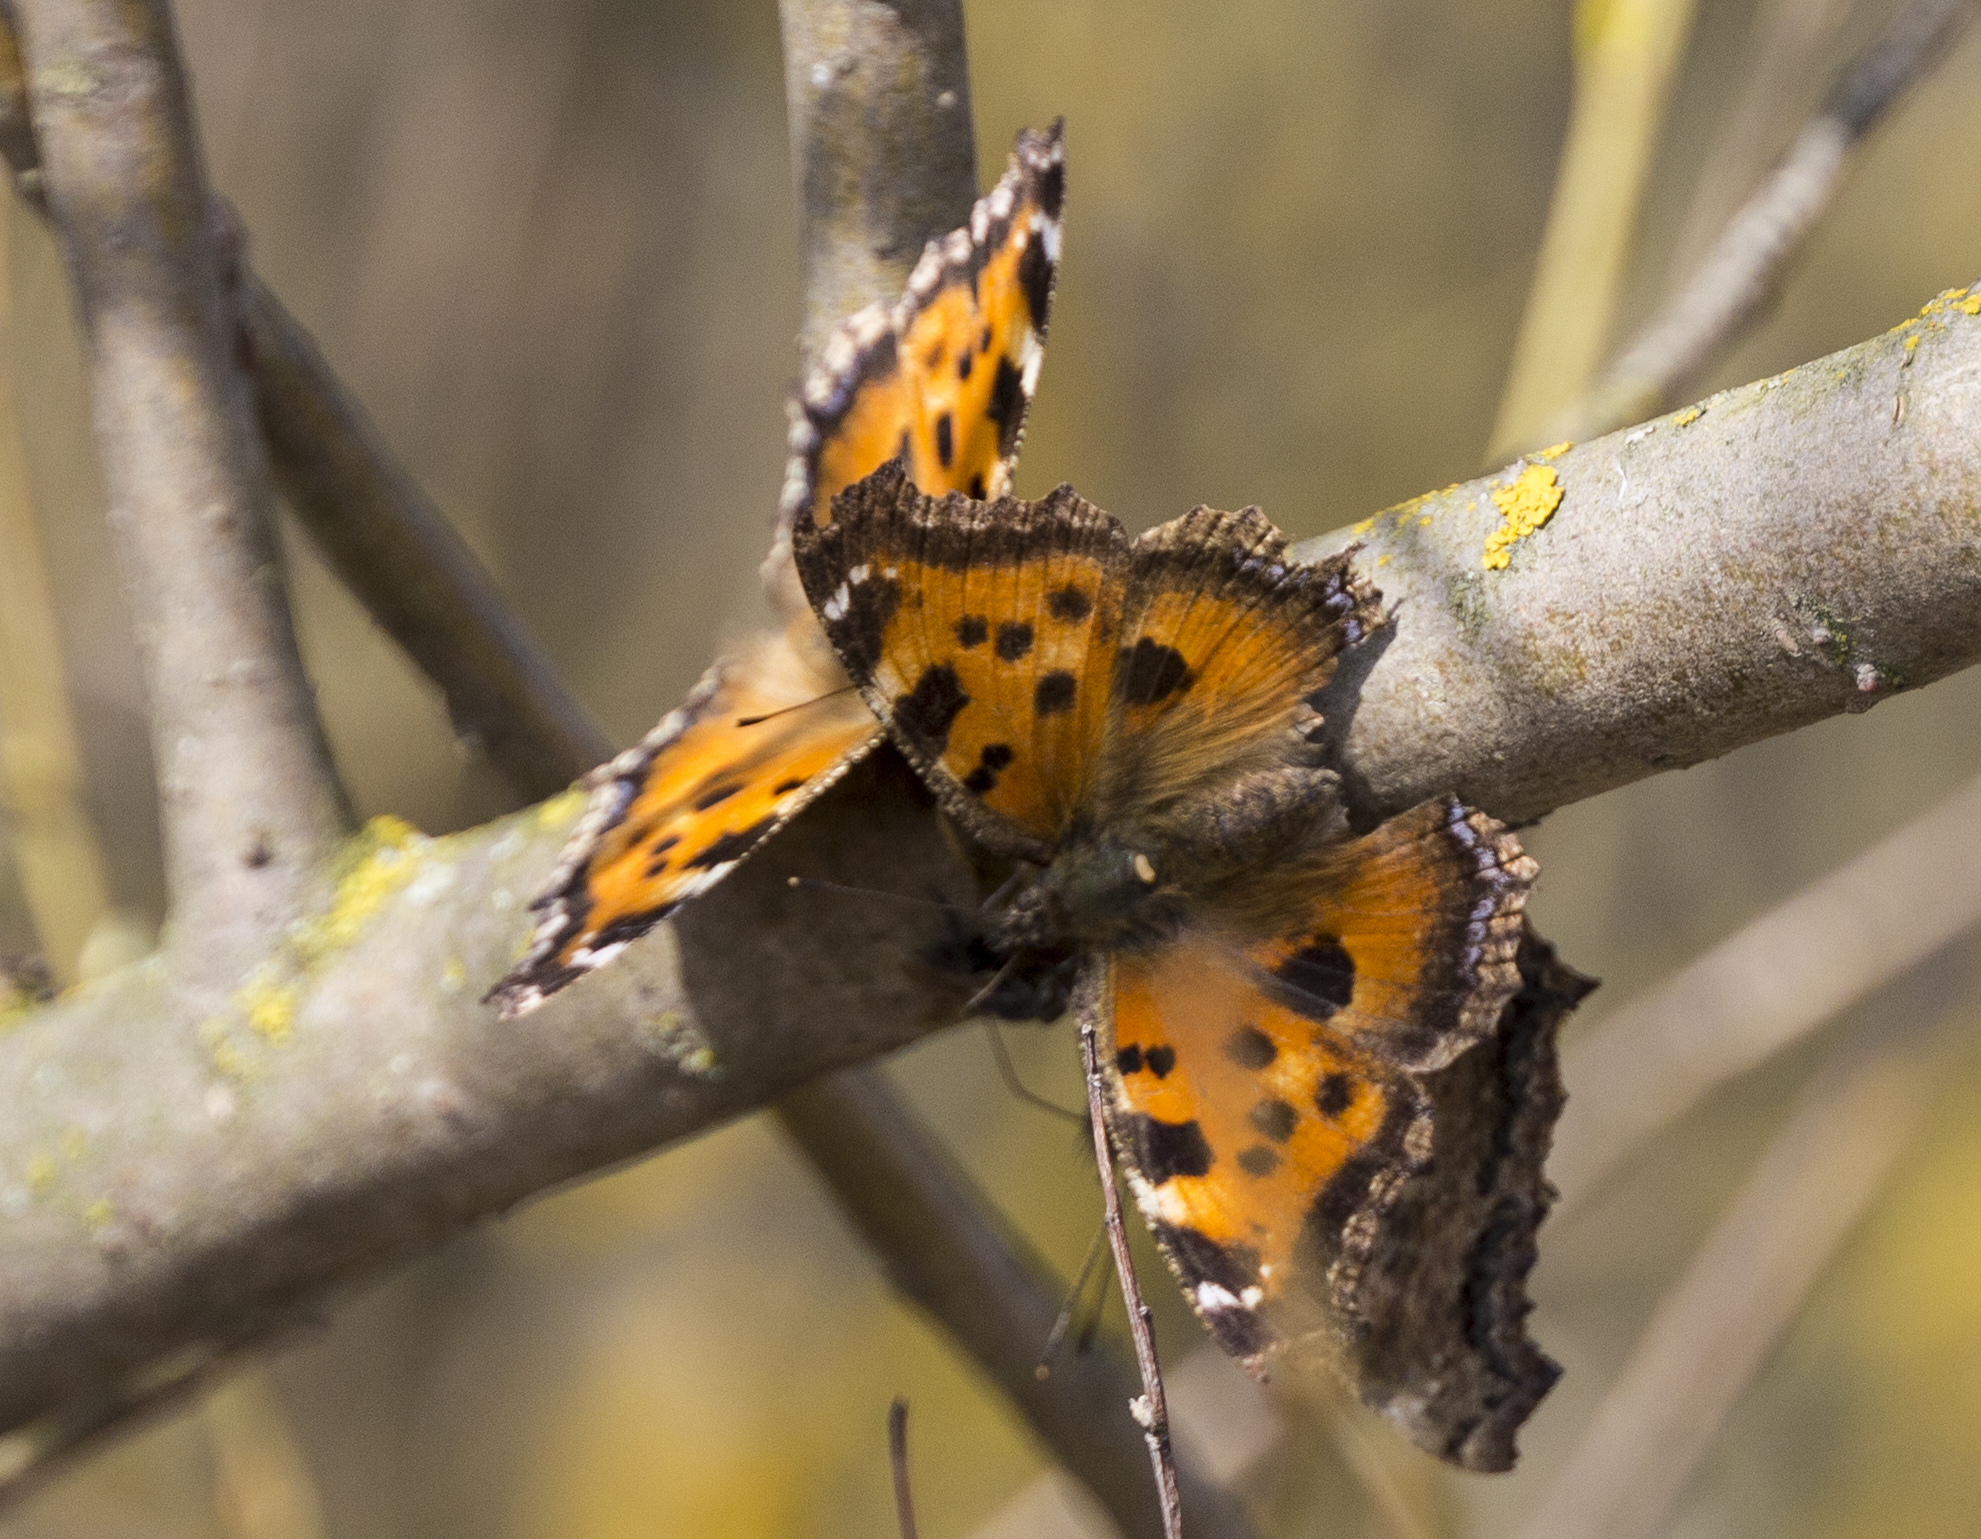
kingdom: Animalia
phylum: Arthropoda
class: Insecta
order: Lepidoptera
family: Nymphalidae
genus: Nymphalis
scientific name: Nymphalis xanthomelas
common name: Scarce tortoiseshell
